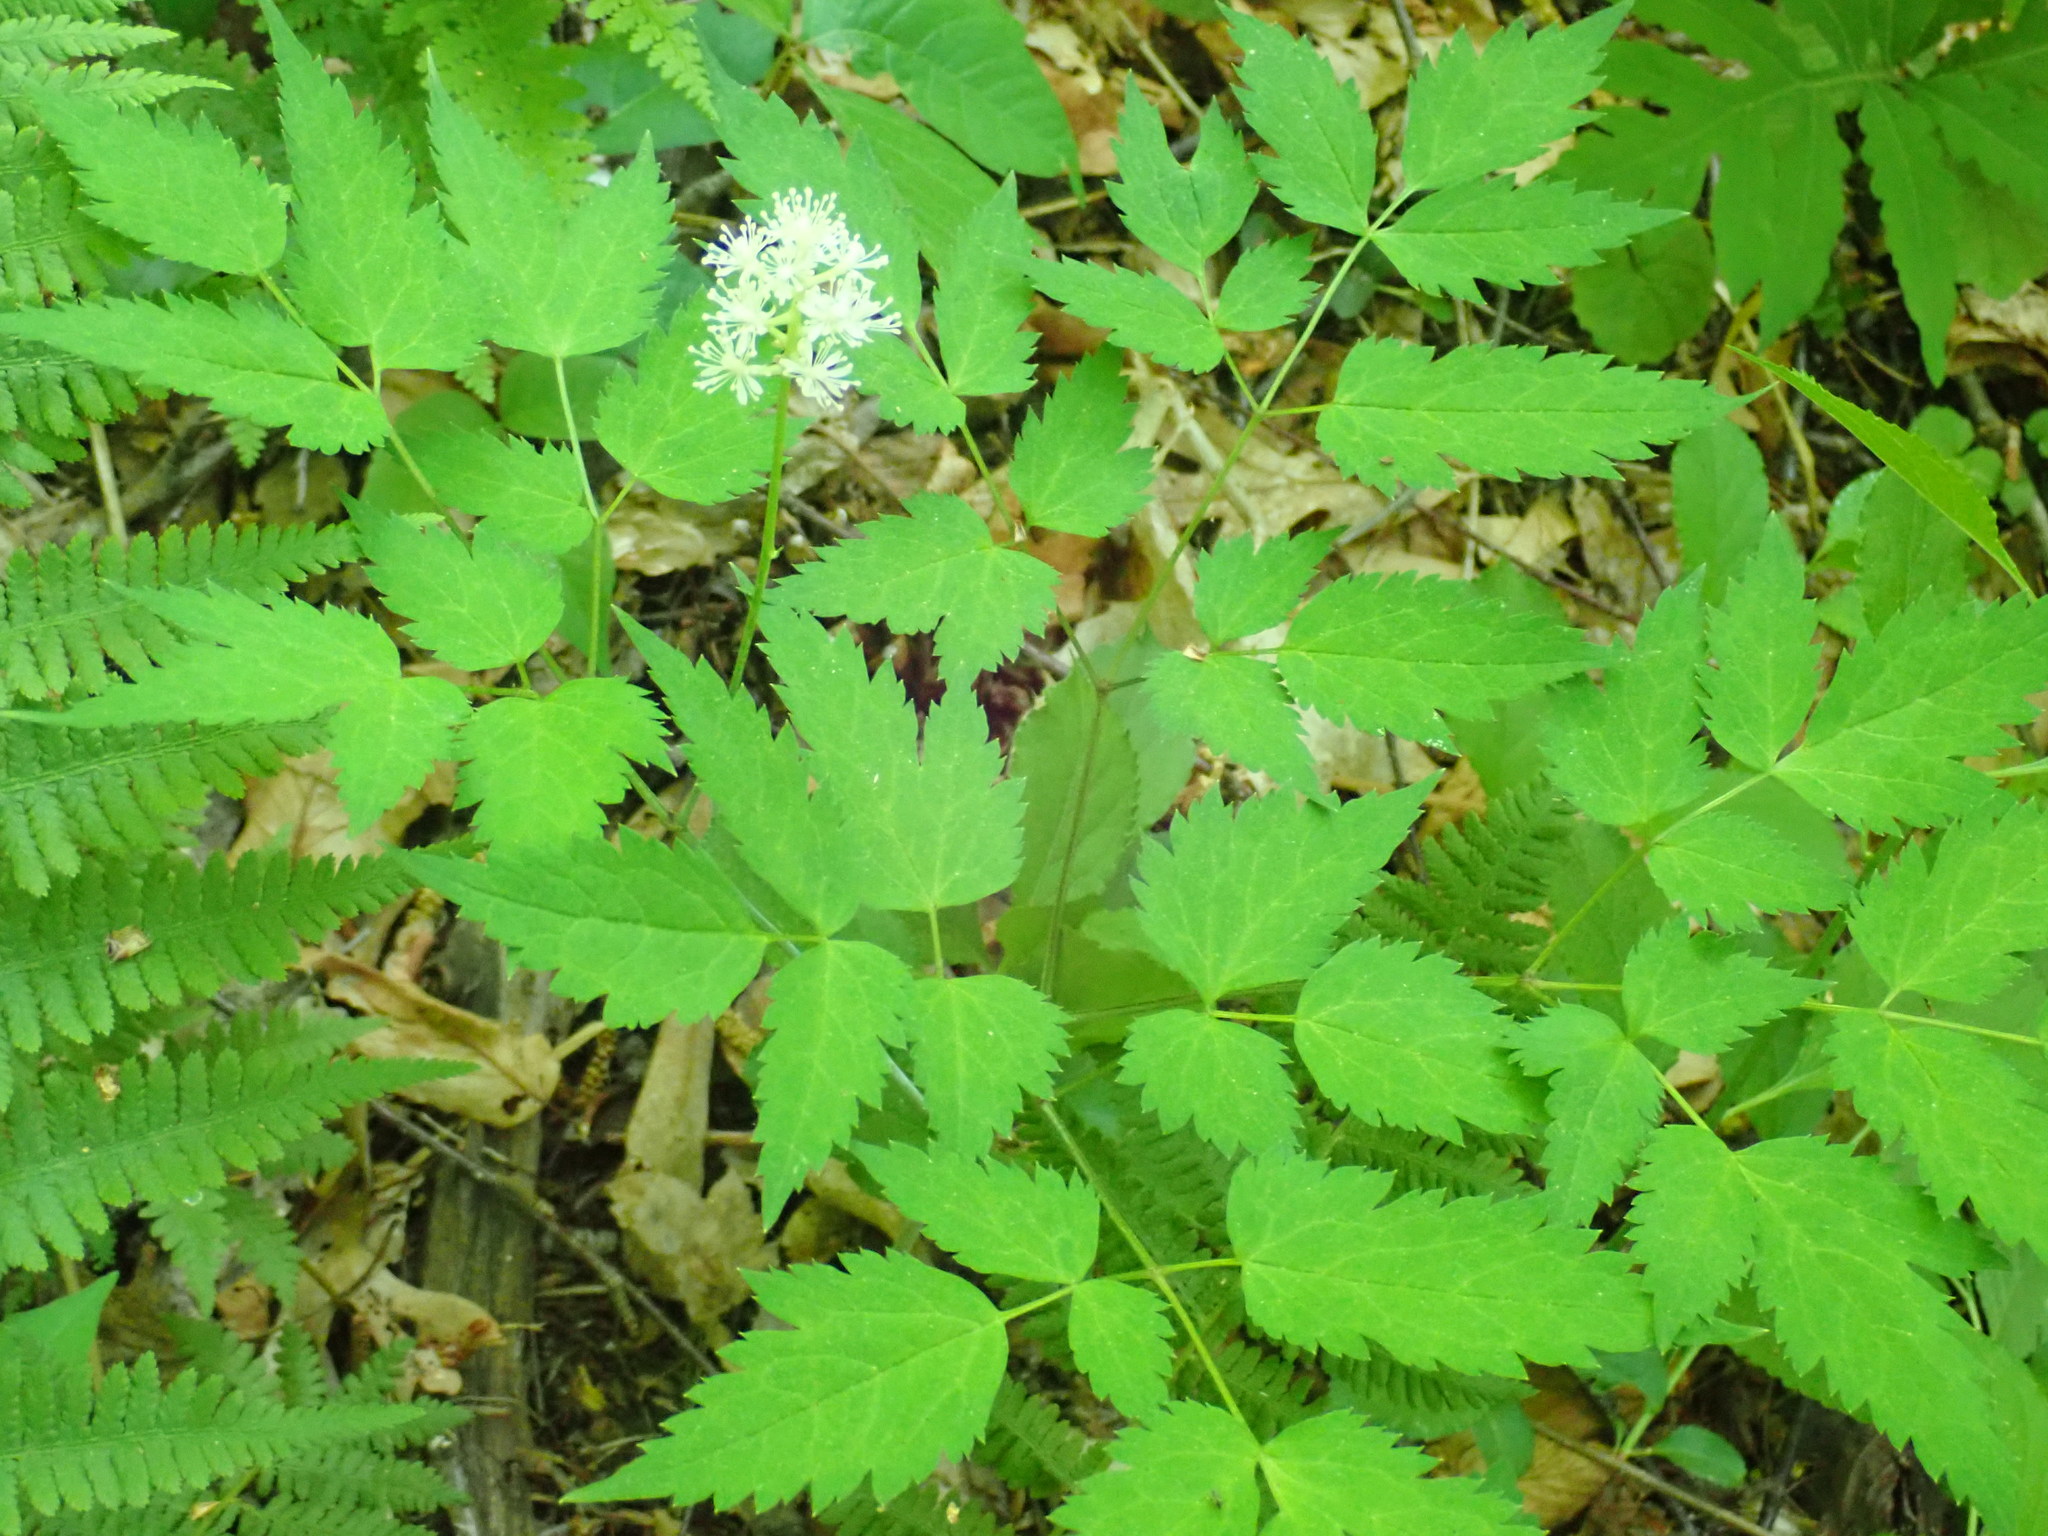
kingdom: Plantae
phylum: Tracheophyta
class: Magnoliopsida
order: Ranunculales
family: Ranunculaceae
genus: Actaea
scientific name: Actaea pachypoda
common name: Doll's-eyes
